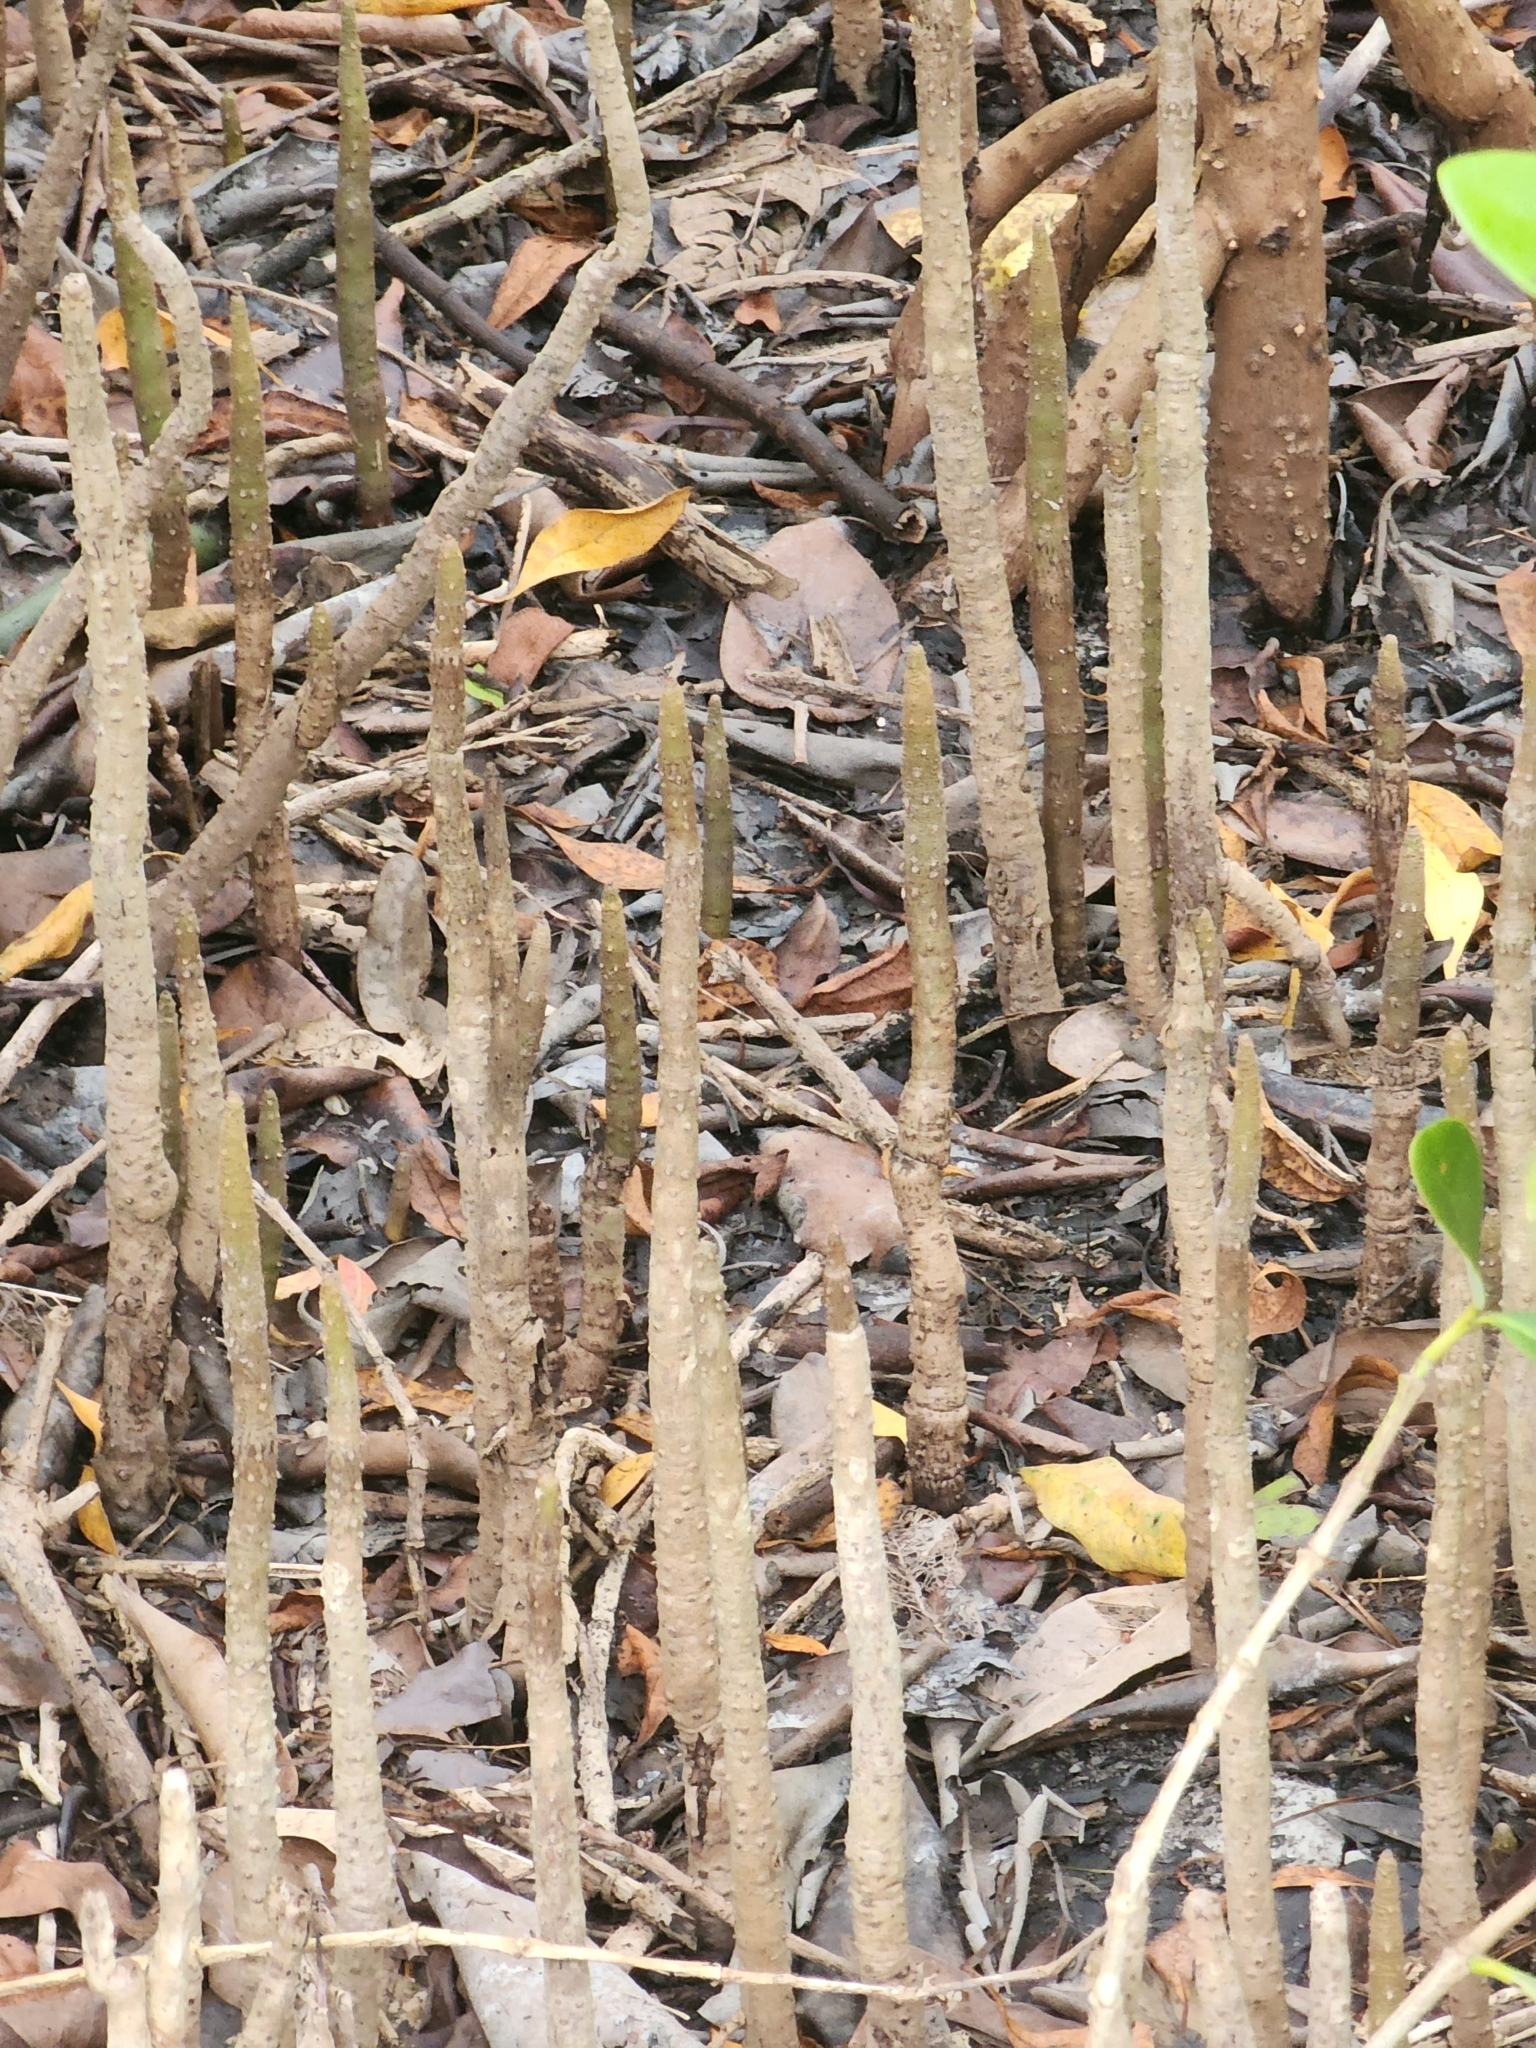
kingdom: Plantae
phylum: Tracheophyta
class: Magnoliopsida
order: Lamiales
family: Acanthaceae
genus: Avicennia
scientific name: Avicennia germinans
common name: Black mangrove
